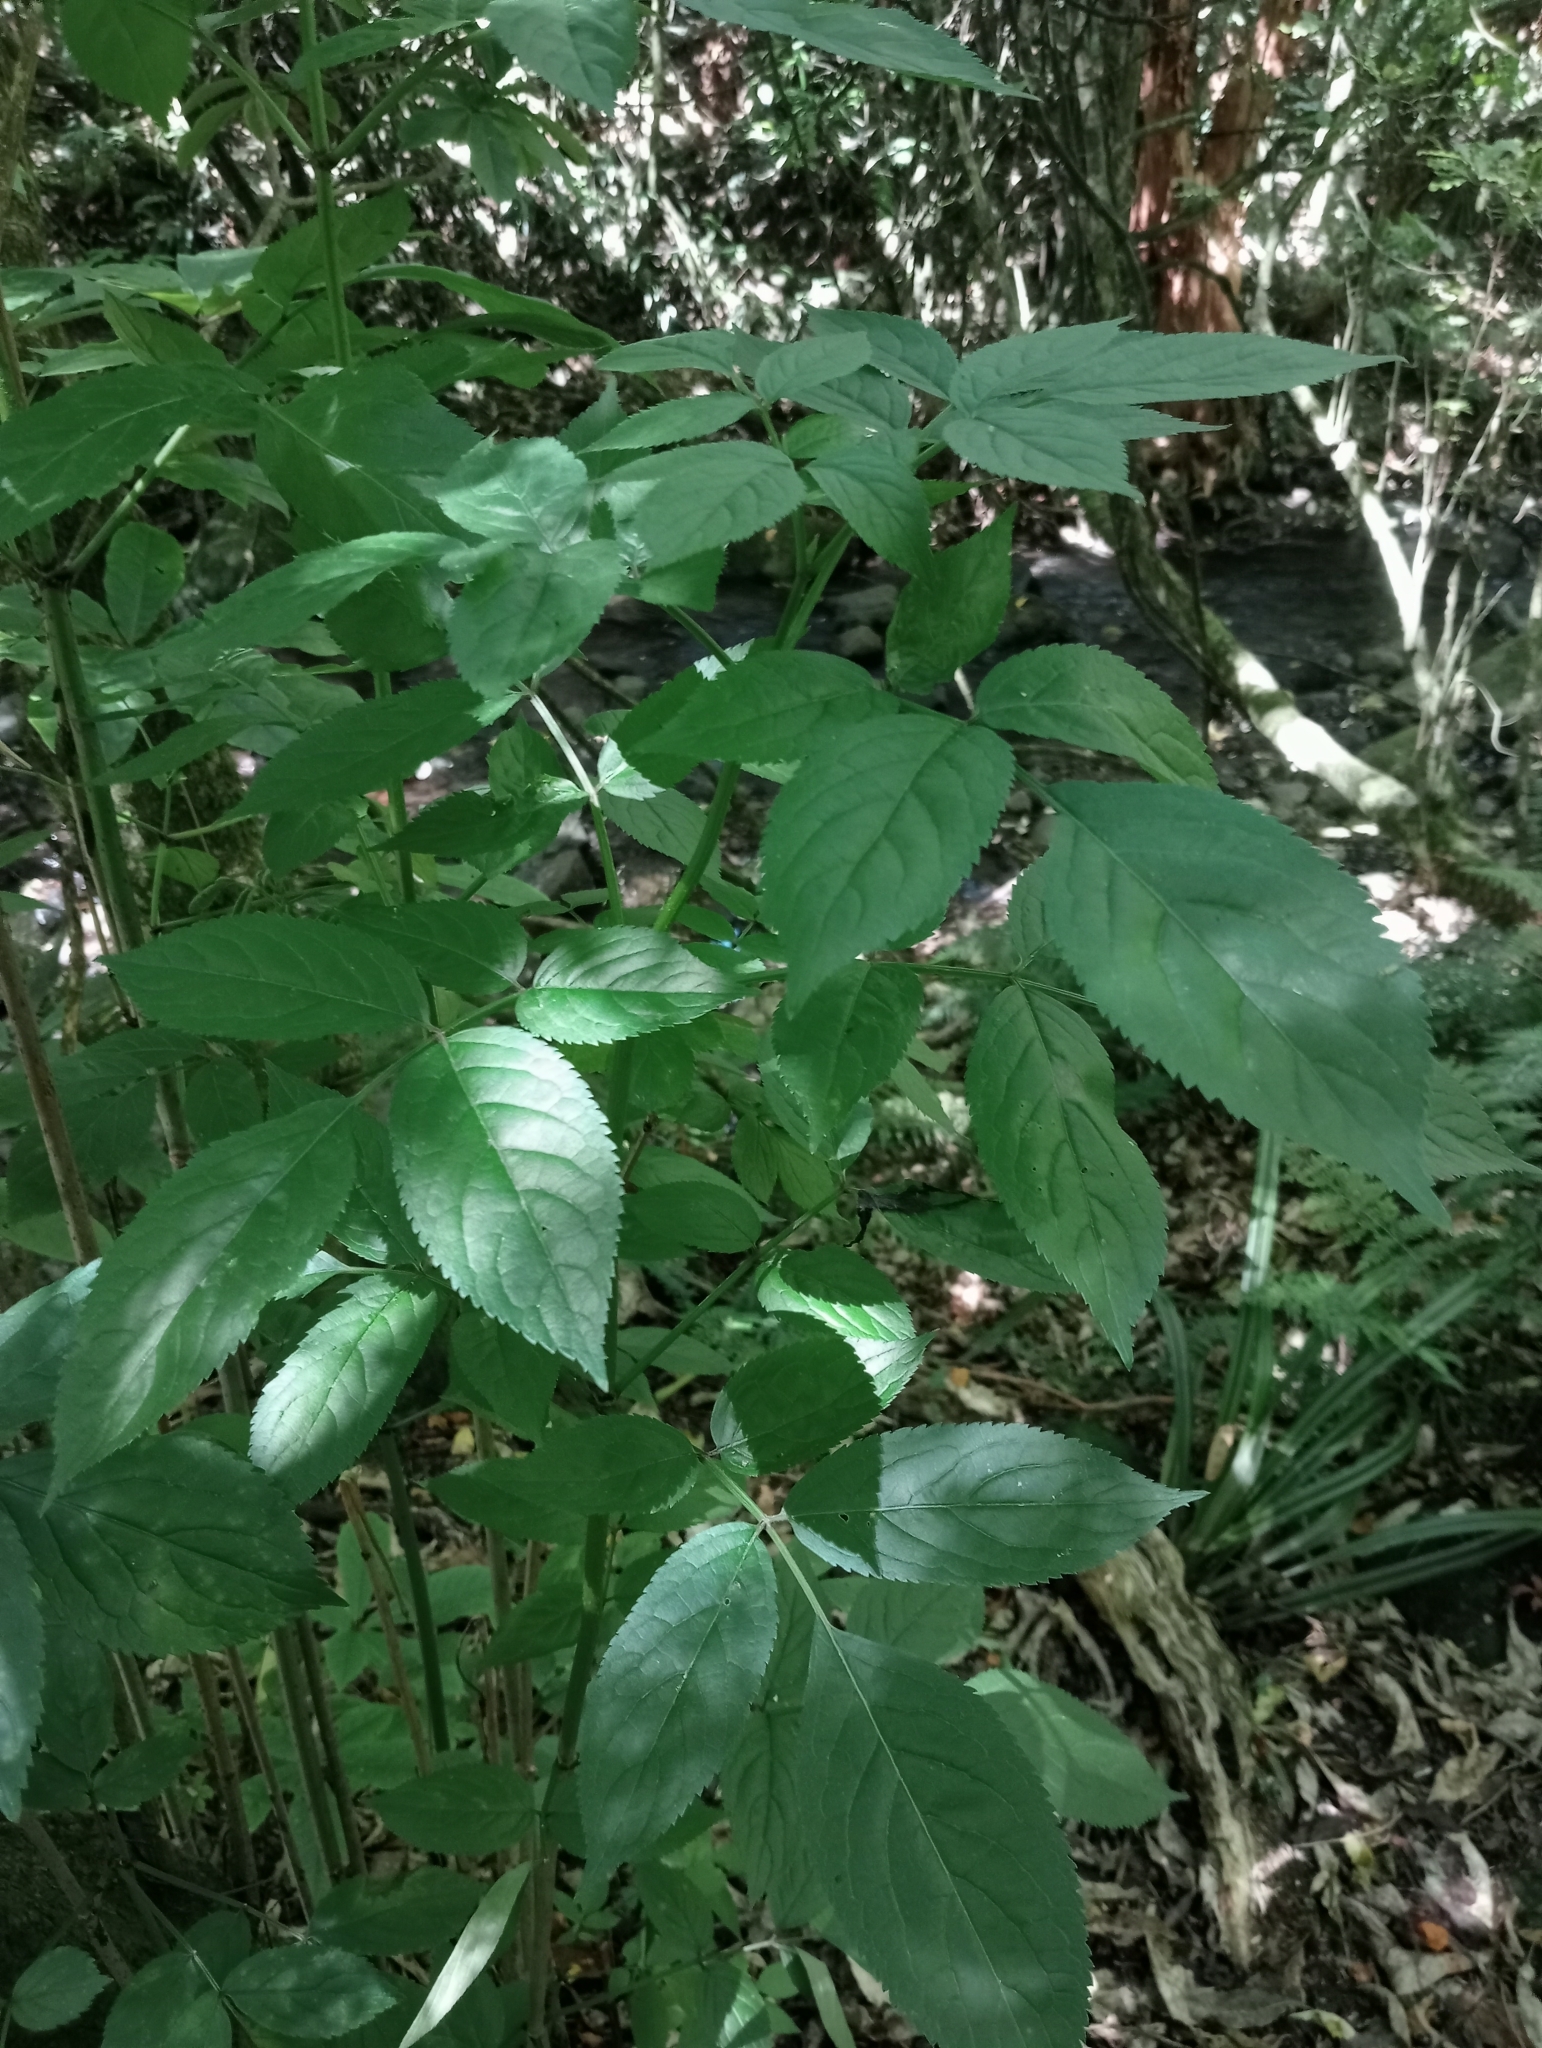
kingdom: Plantae
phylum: Tracheophyta
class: Magnoliopsida
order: Dipsacales
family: Viburnaceae
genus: Sambucus
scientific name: Sambucus nigra
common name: Elder
